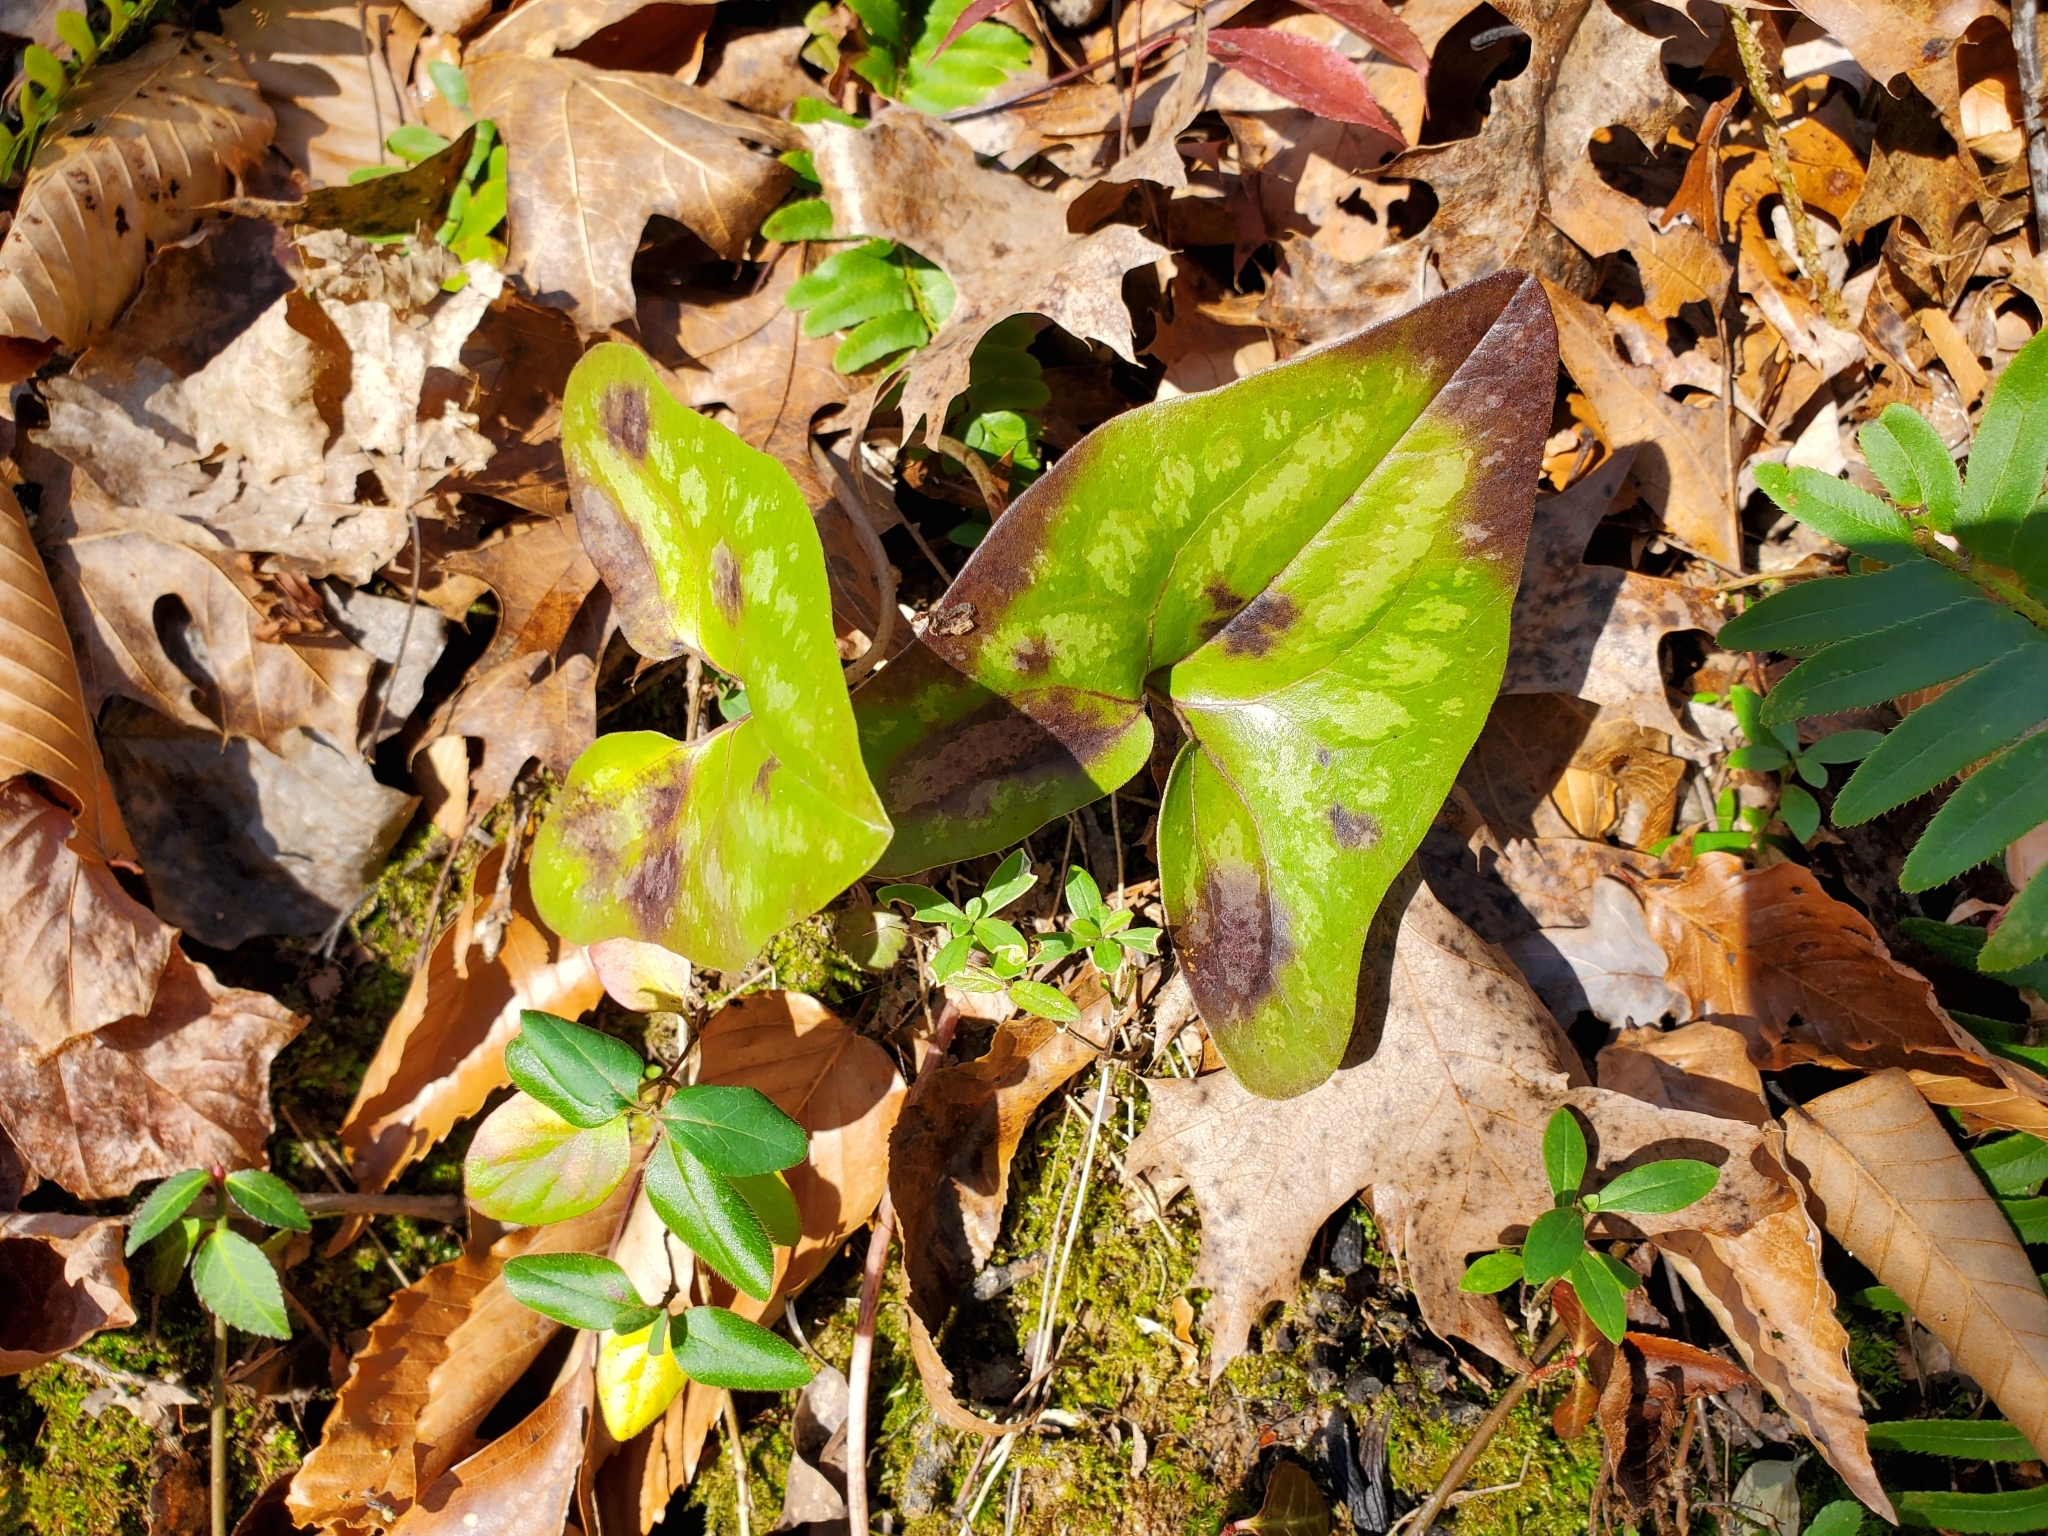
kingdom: Plantae
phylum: Tracheophyta
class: Magnoliopsida
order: Piperales
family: Aristolochiaceae
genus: Hexastylis
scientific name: Hexastylis arifolia
